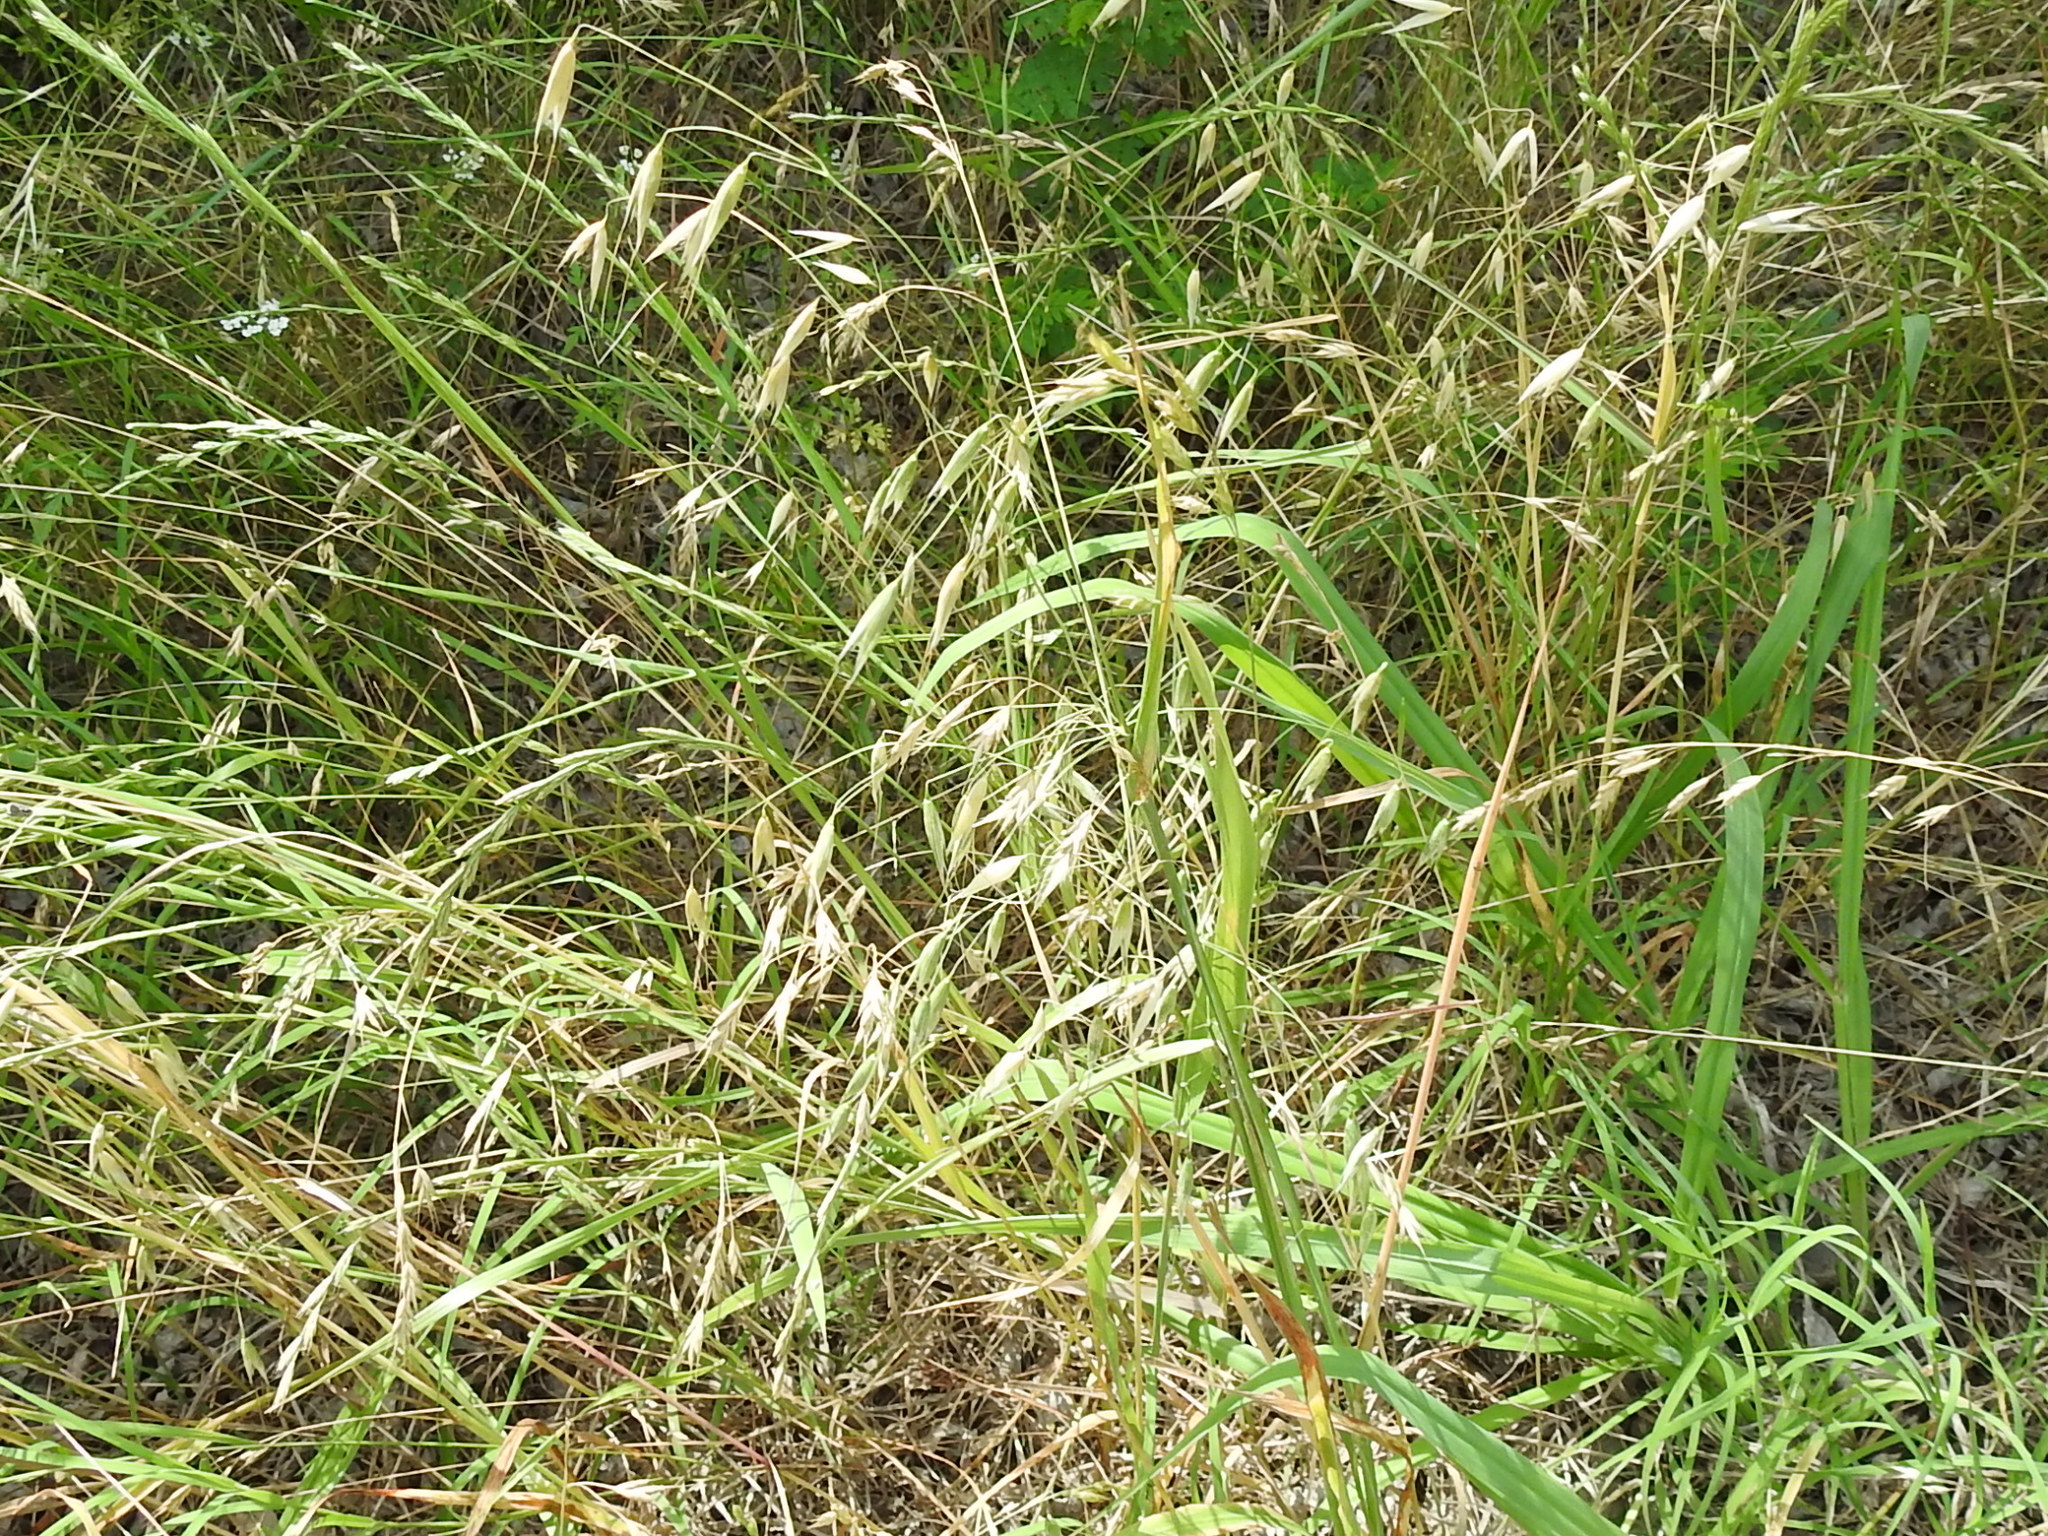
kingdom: Plantae
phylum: Tracheophyta
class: Liliopsida
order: Poales
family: Poaceae
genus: Avena
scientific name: Avena fatua
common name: Wild oat
